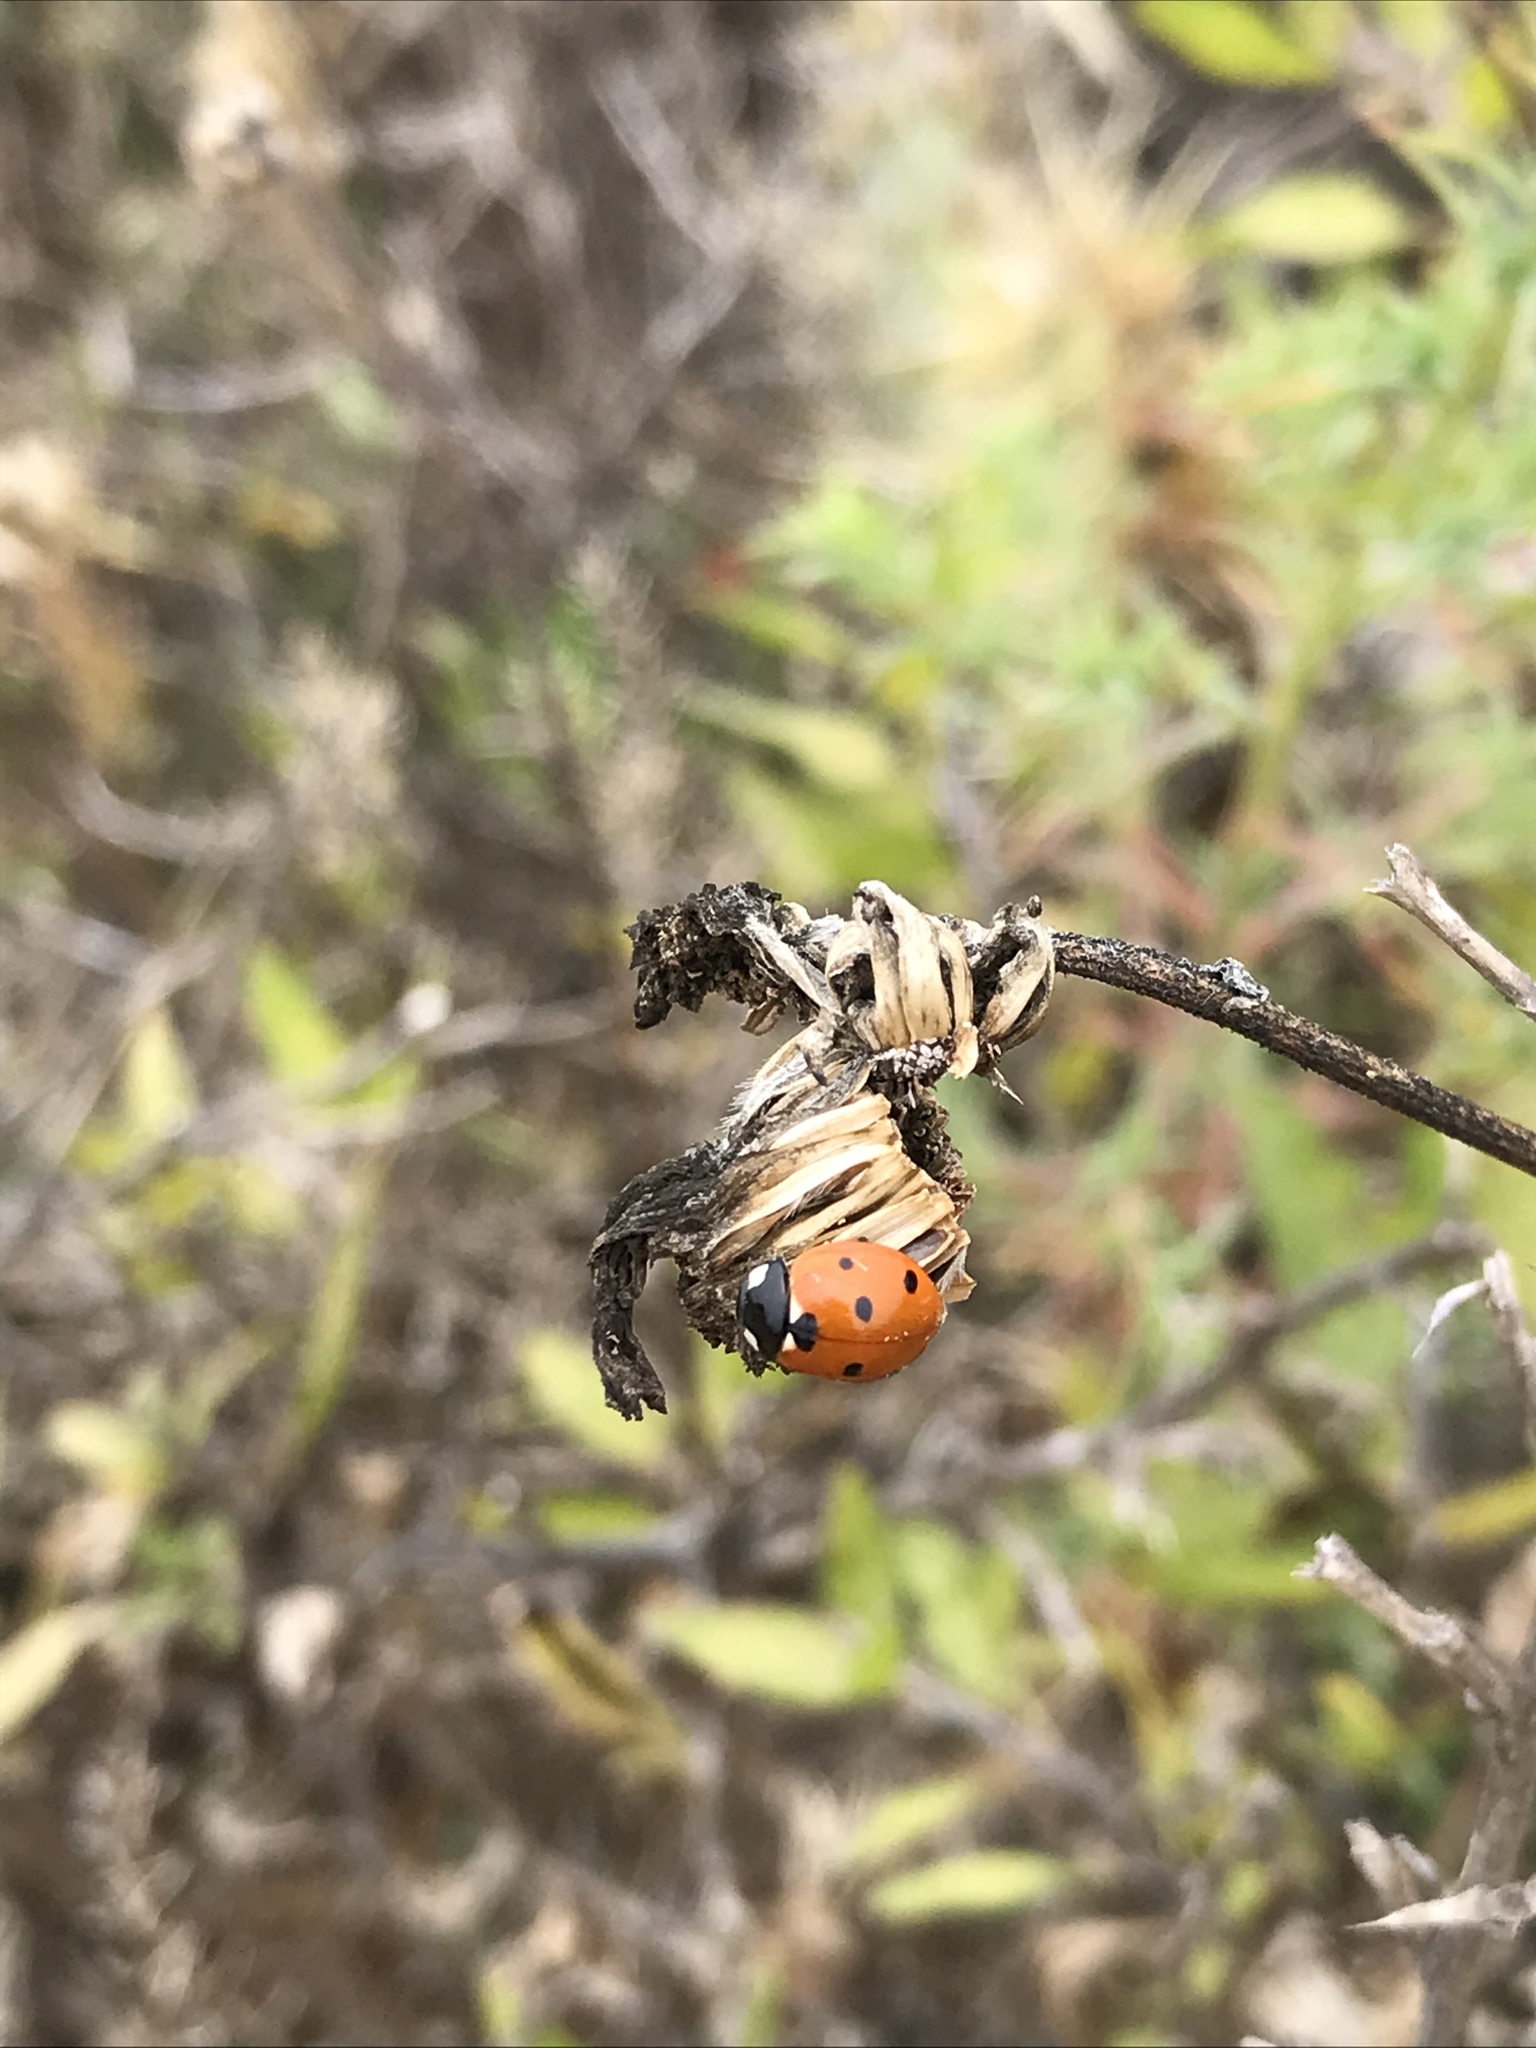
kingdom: Animalia
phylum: Arthropoda
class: Insecta
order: Coleoptera
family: Coccinellidae
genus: Coccinella
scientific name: Coccinella septempunctata
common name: Sevenspotted lady beetle
